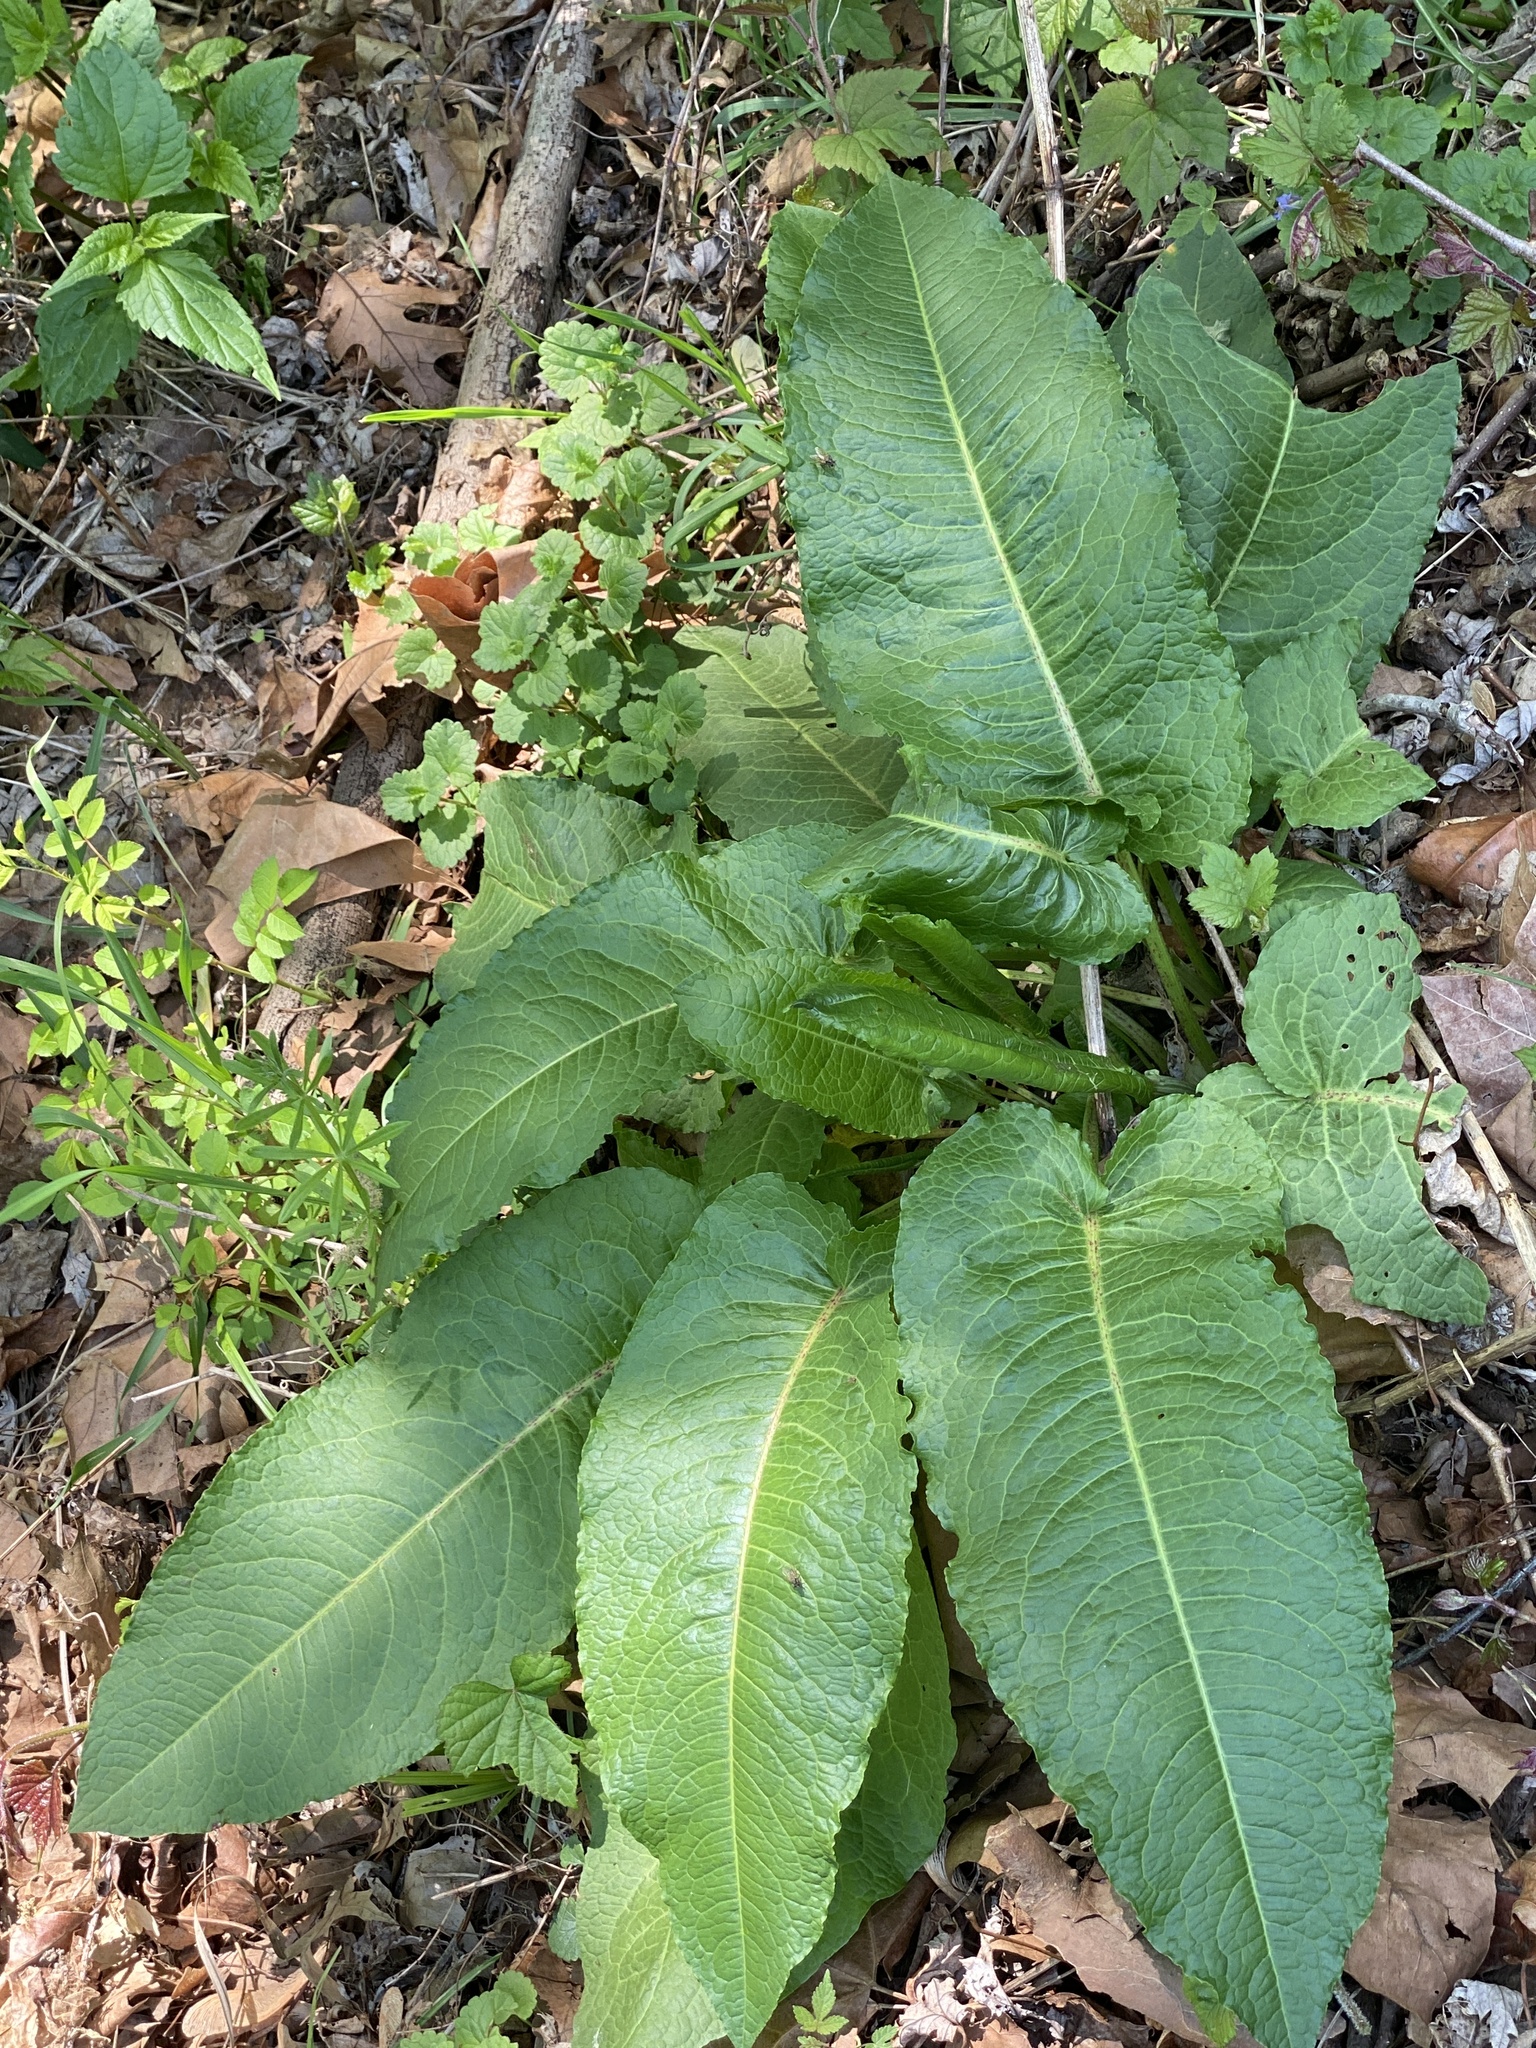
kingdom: Plantae
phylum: Tracheophyta
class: Magnoliopsida
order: Caryophyllales
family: Polygonaceae
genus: Rumex
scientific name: Rumex obtusifolius
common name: Bitter dock
